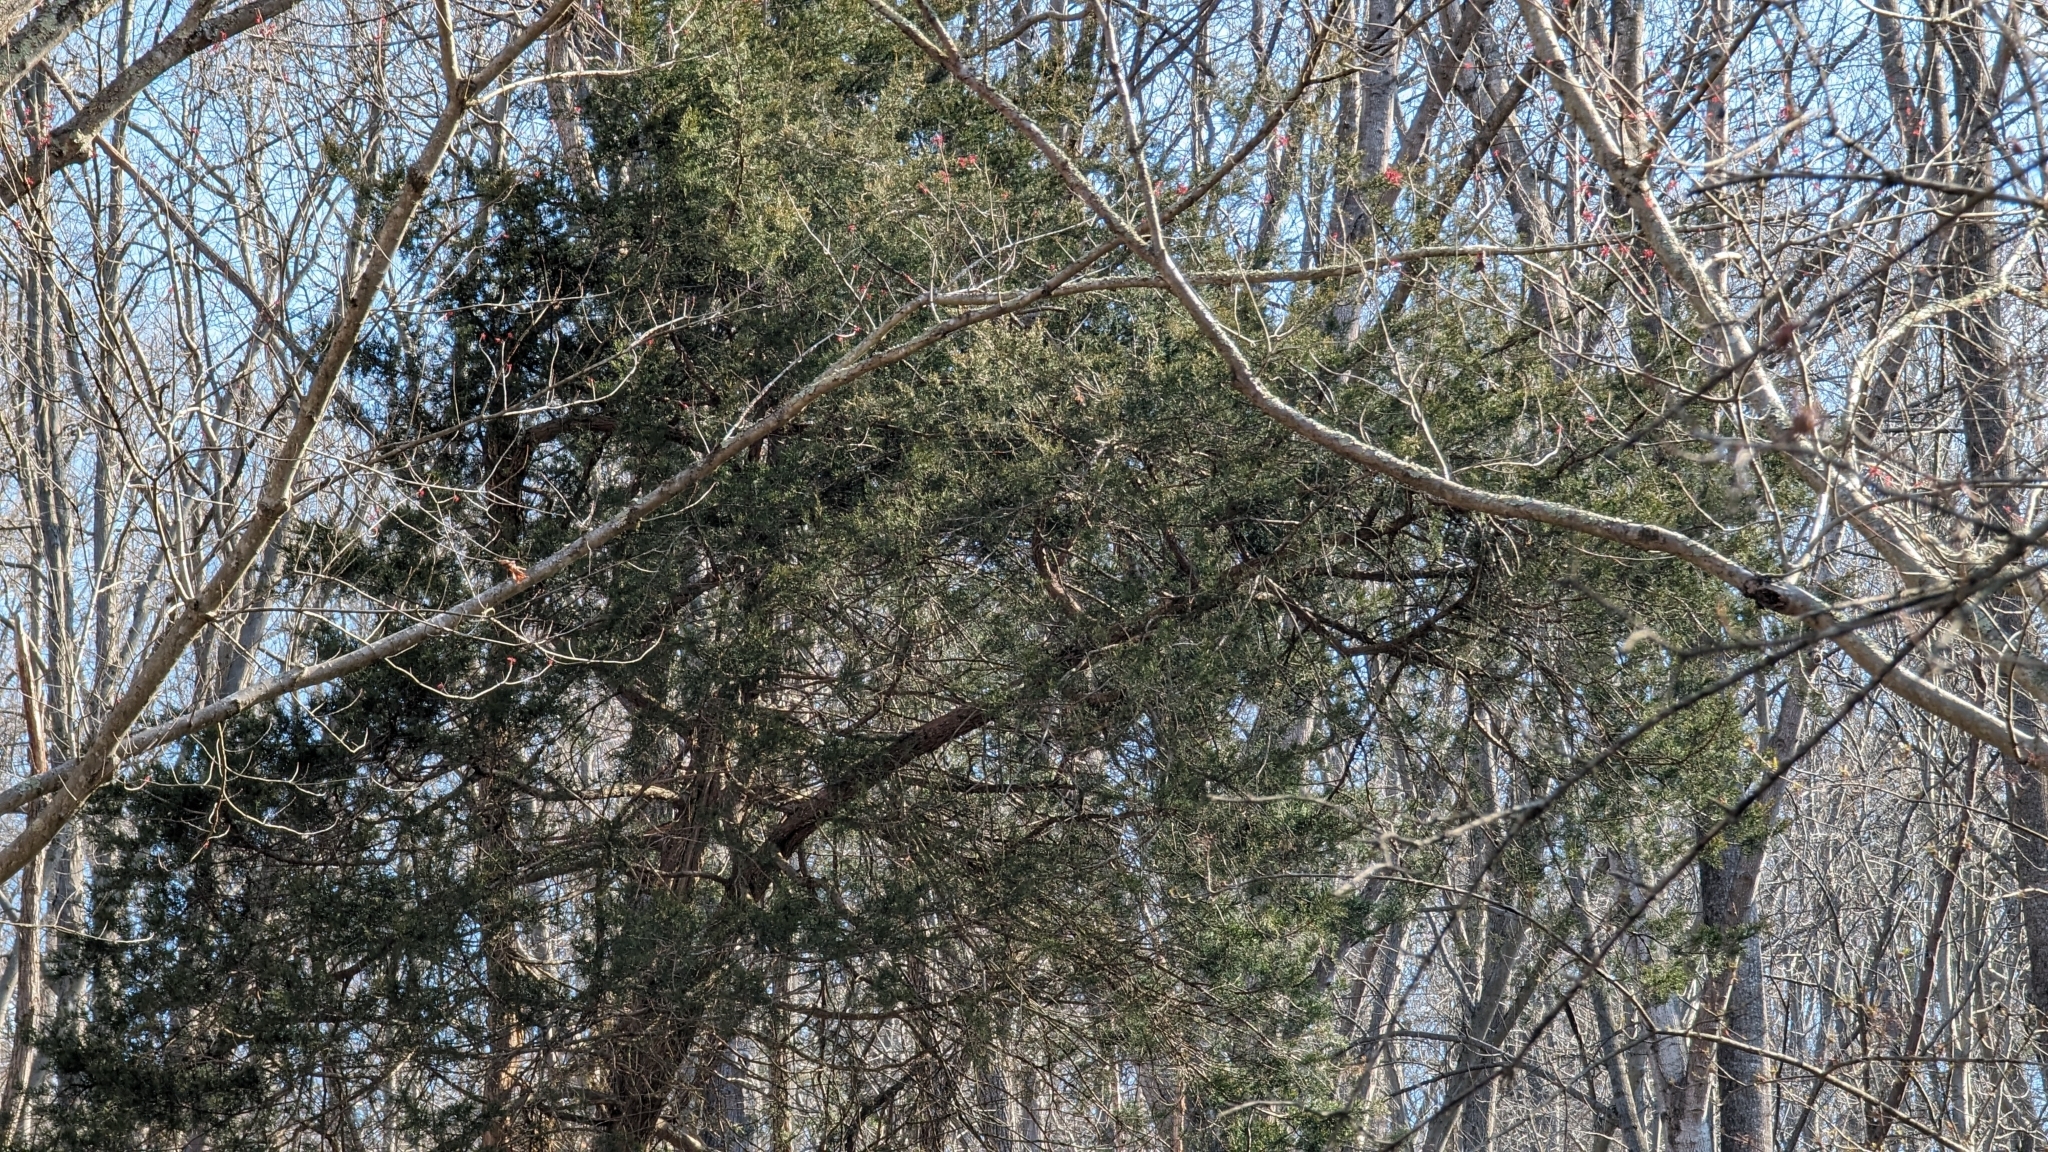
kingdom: Plantae
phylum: Tracheophyta
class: Pinopsida
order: Pinales
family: Cupressaceae
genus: Juniperus
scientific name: Juniperus virginiana
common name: Red juniper
